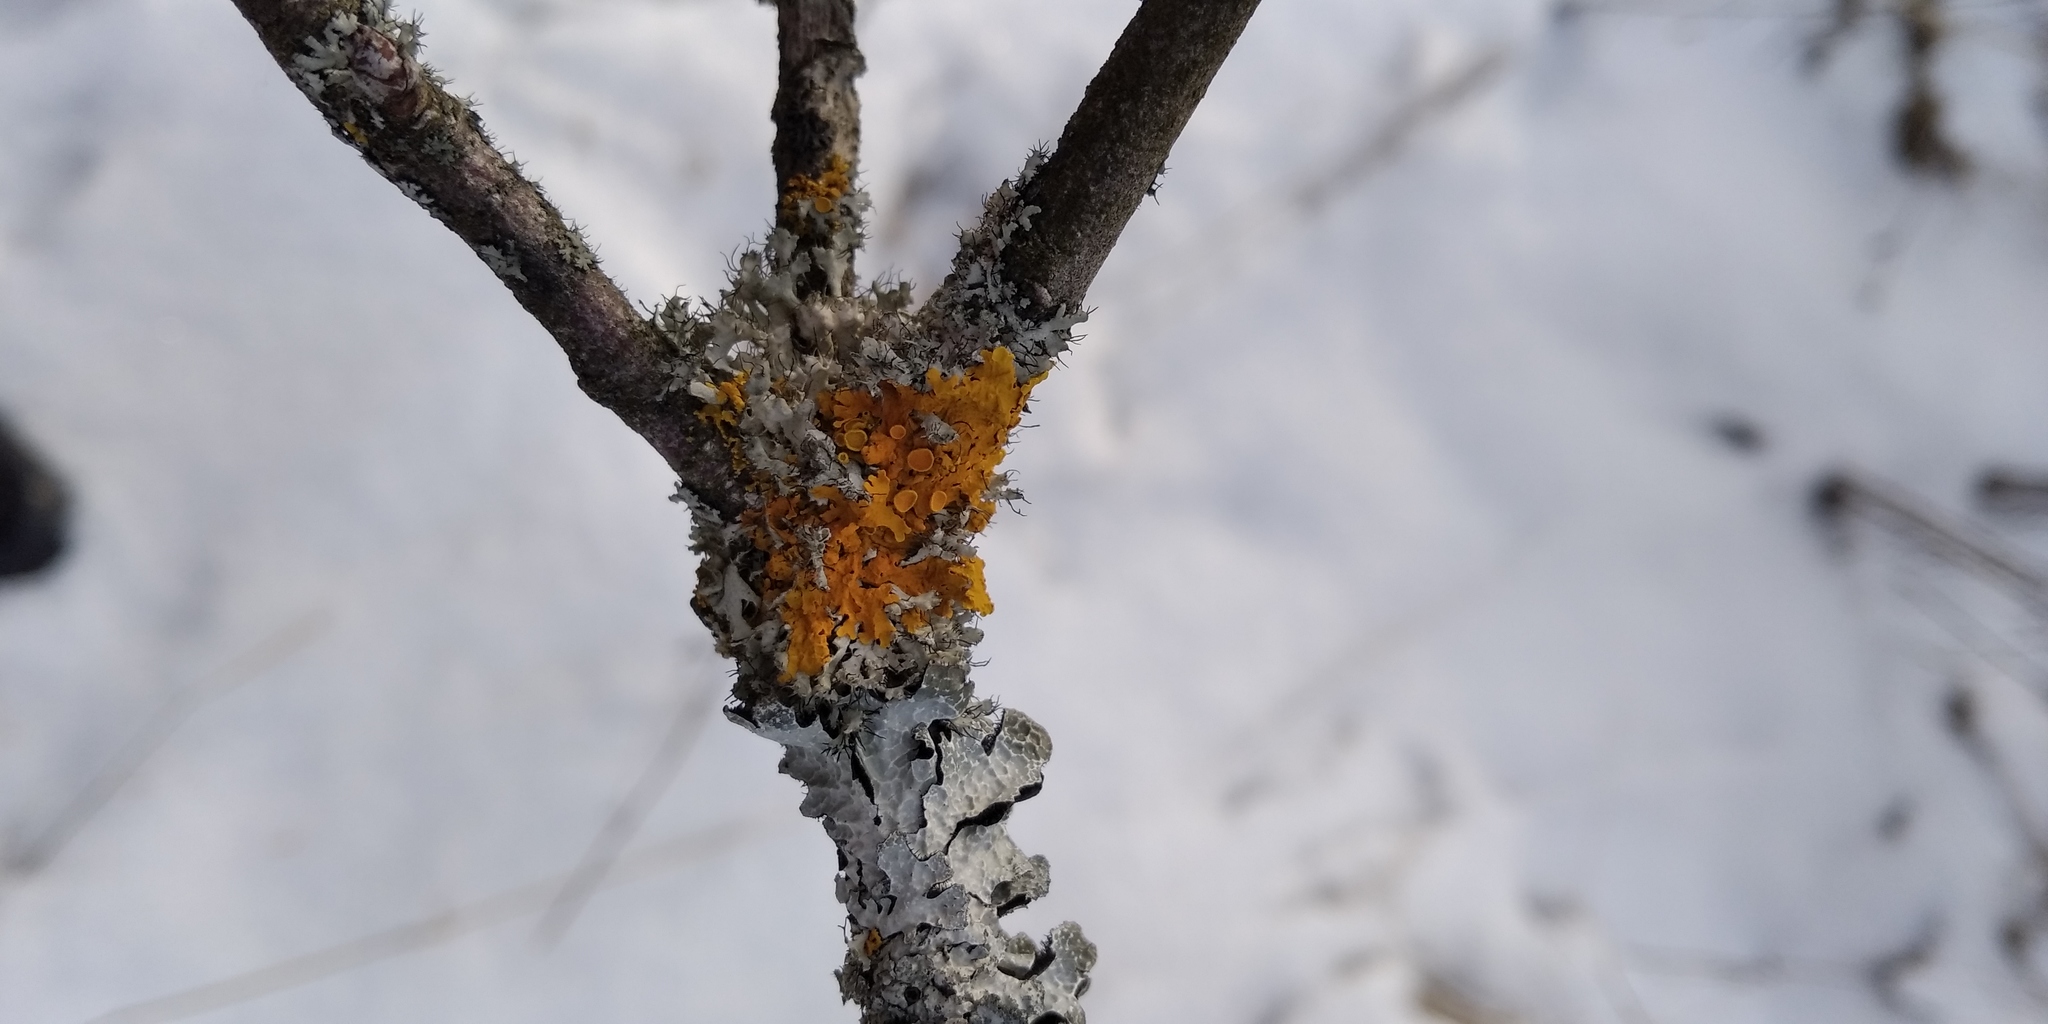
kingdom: Fungi
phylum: Ascomycota
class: Lecanoromycetes
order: Teloschistales
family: Teloschistaceae
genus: Xanthoria
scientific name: Xanthoria parietina
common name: Common orange lichen
